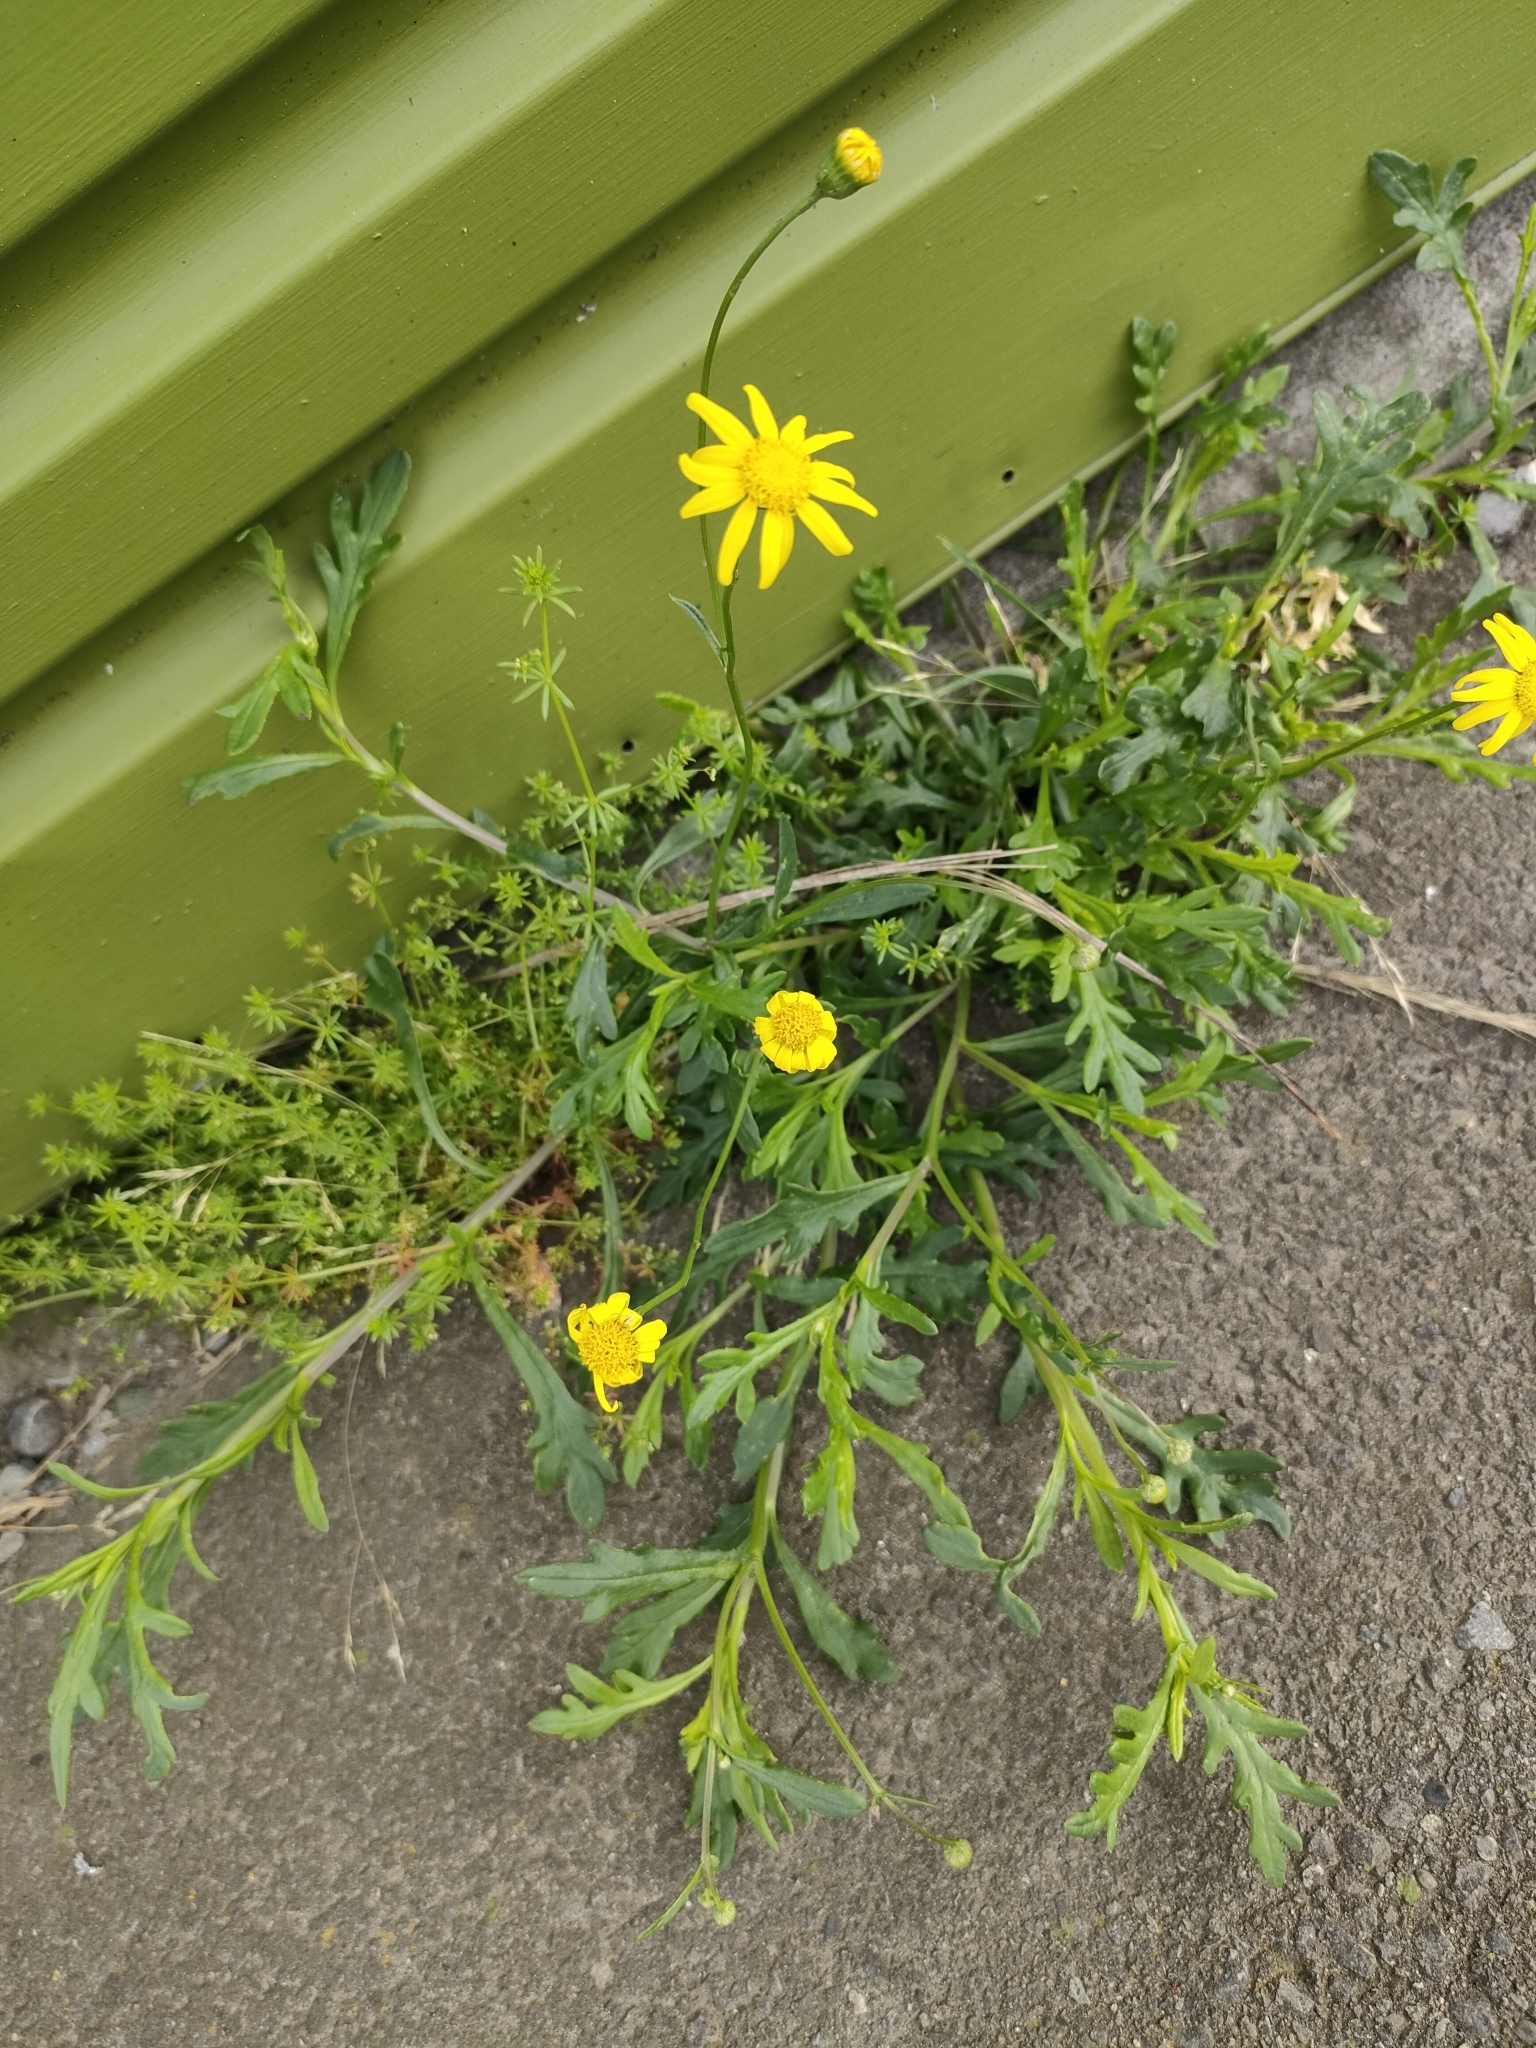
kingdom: Plantae
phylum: Tracheophyta
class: Magnoliopsida
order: Asterales
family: Asteraceae
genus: Senecio
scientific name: Senecio skirrhodon
